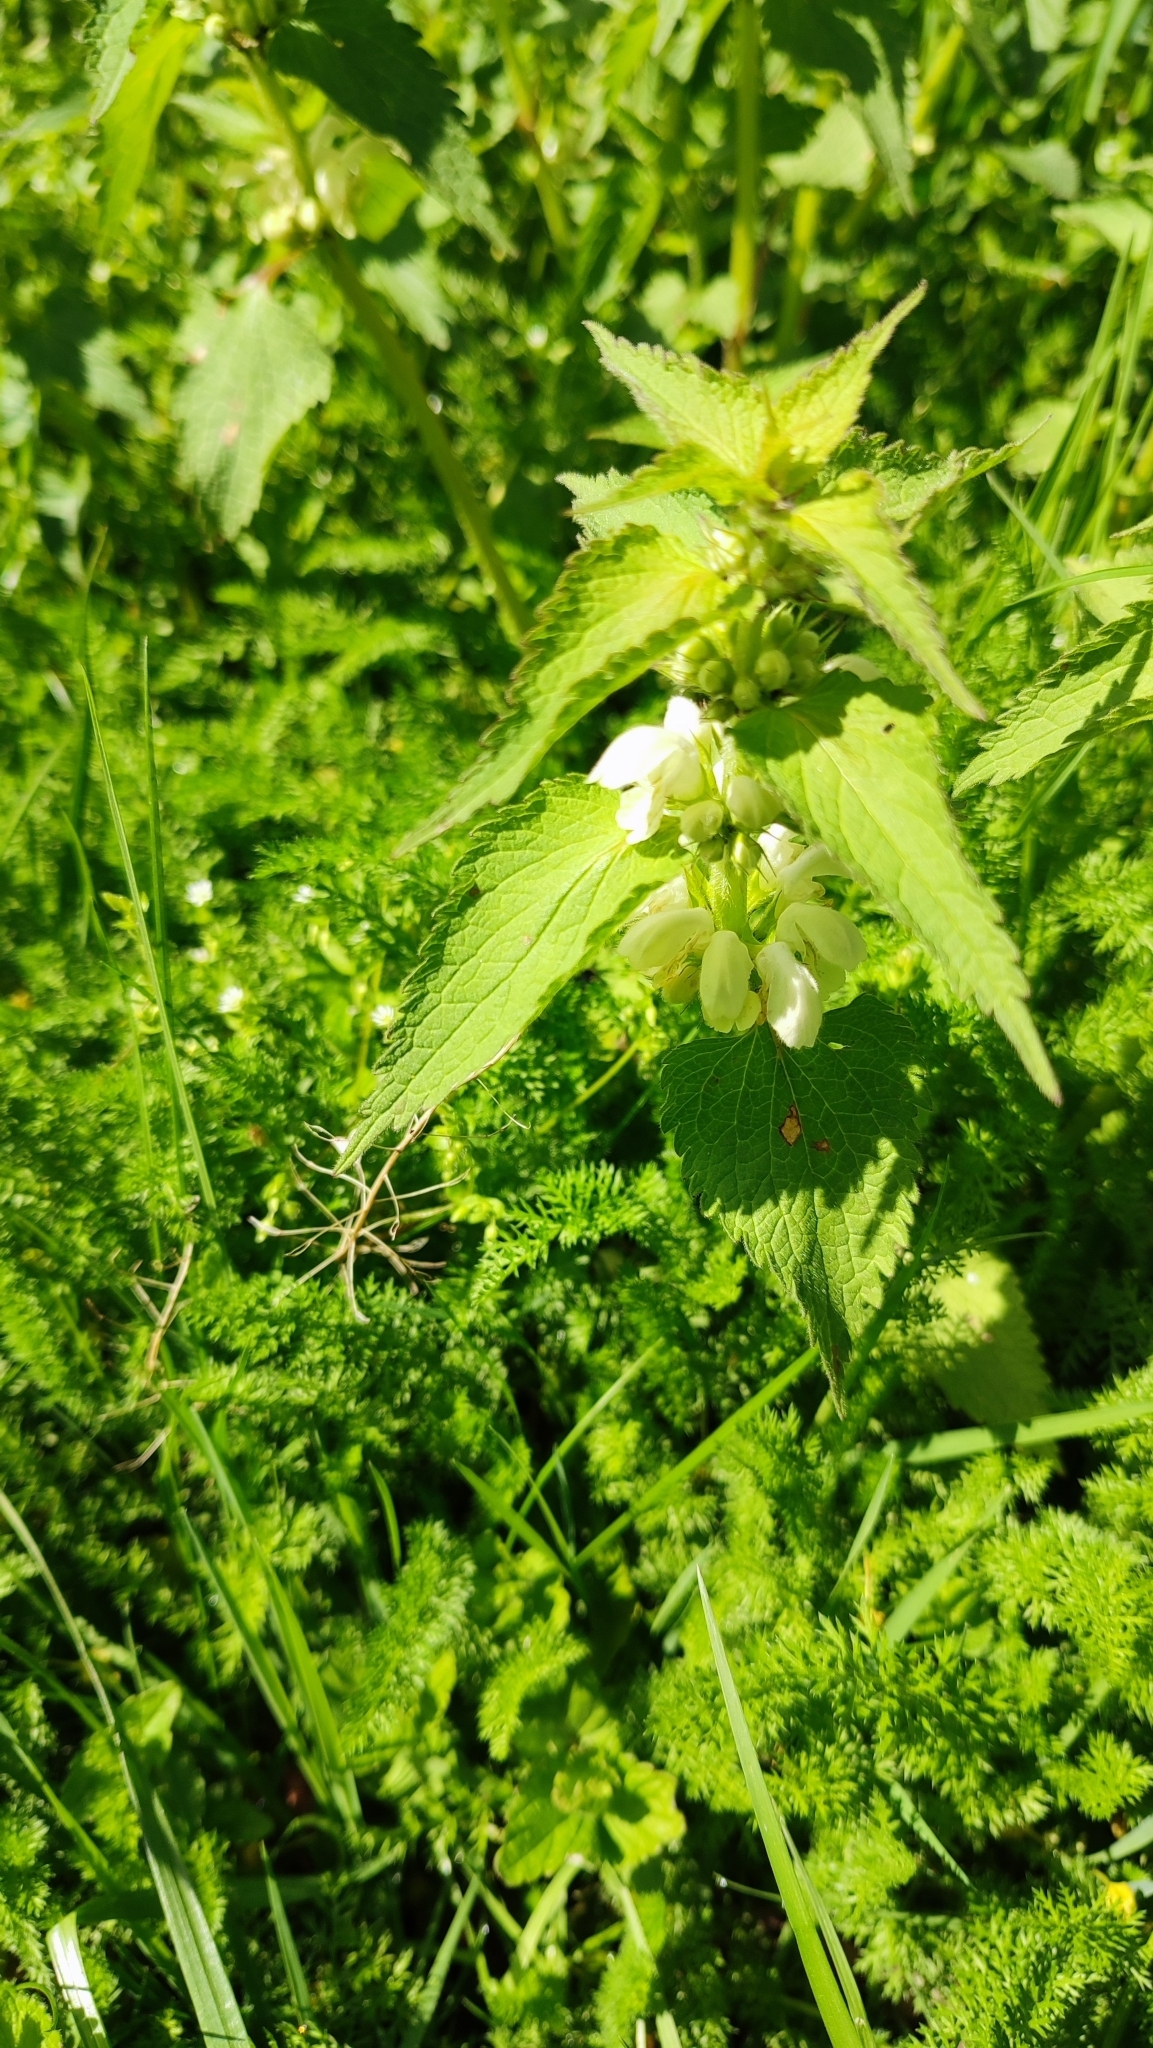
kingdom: Plantae
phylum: Tracheophyta
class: Magnoliopsida
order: Lamiales
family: Lamiaceae
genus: Lamium
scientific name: Lamium album
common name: White dead-nettle
